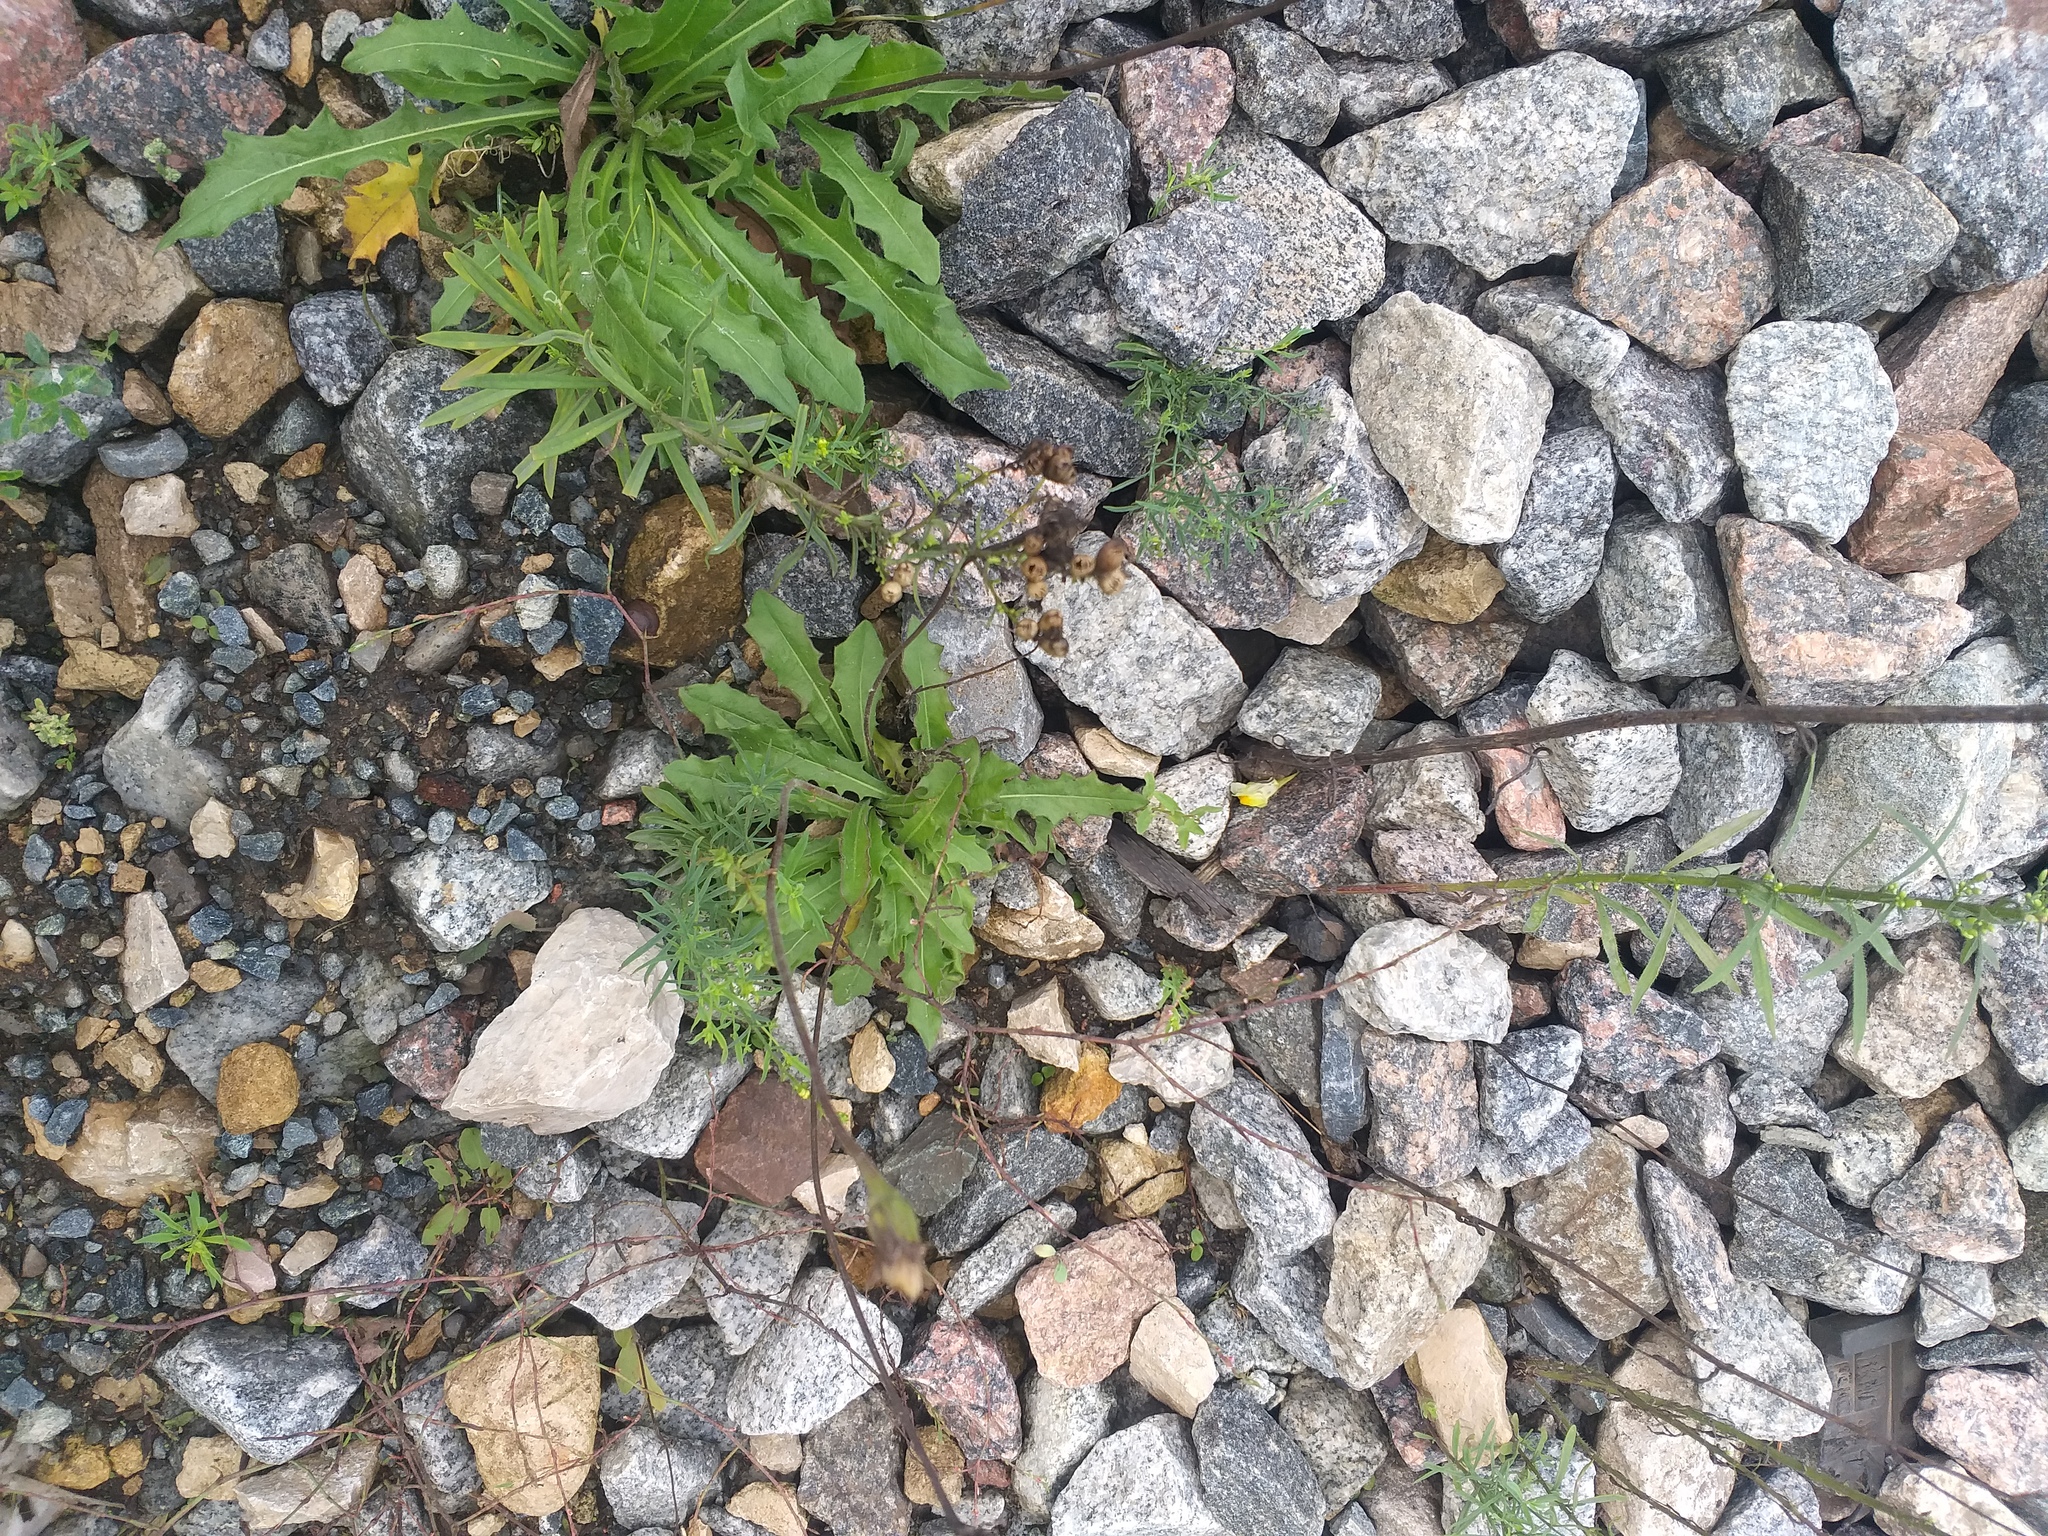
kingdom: Plantae
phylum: Tracheophyta
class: Magnoliopsida
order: Asterales
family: Asteraceae
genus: Leontodon
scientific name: Leontodon hispidus
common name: Rough hawkbit
